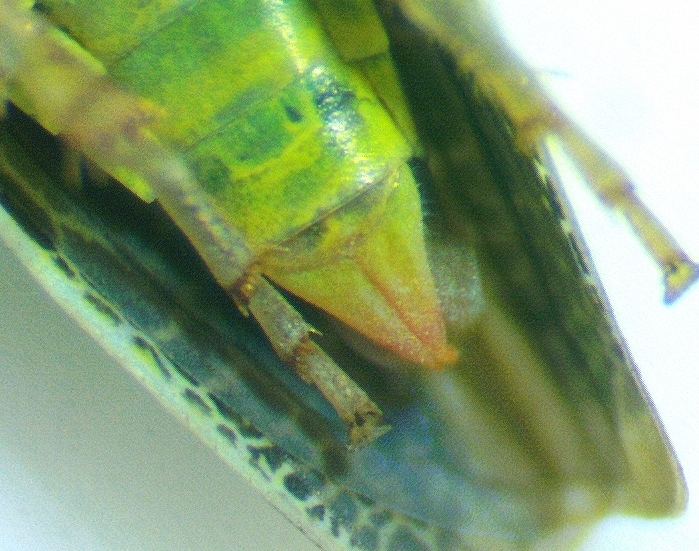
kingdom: Animalia
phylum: Arthropoda
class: Insecta
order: Hemiptera
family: Cicadellidae
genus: Xyphon
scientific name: Xyphon flaviceps
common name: Yellowheaded leafhopper
